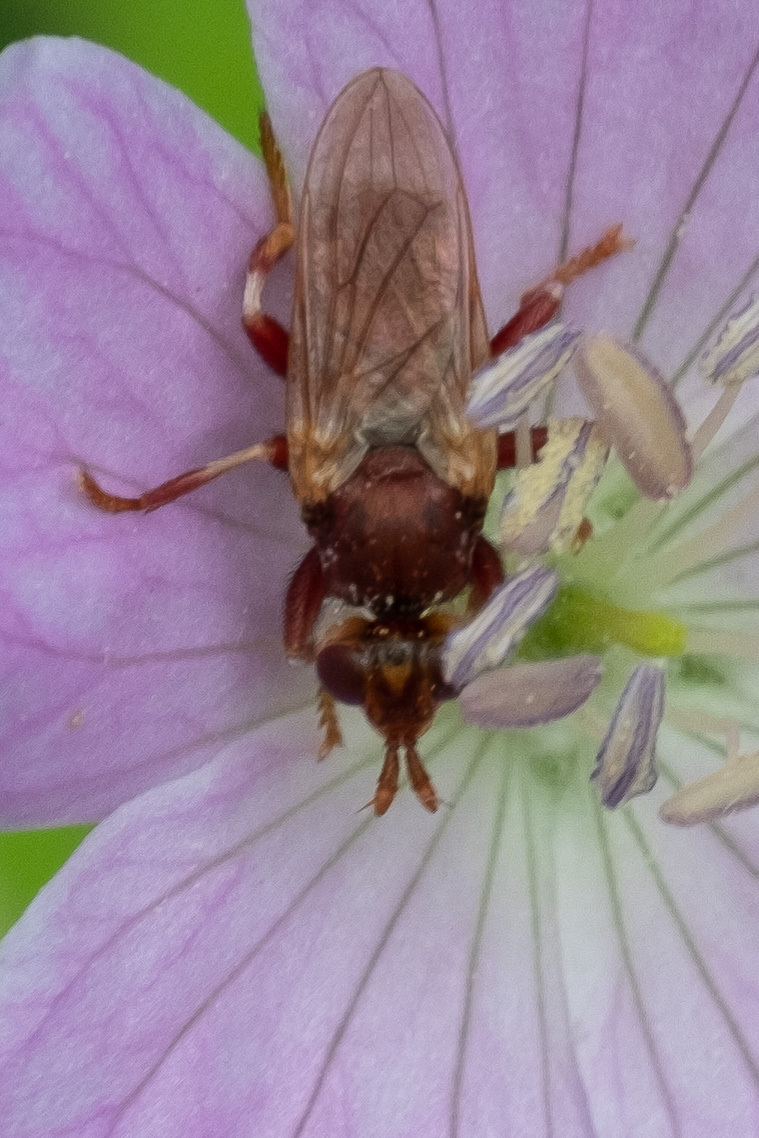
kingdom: Animalia
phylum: Arthropoda
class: Insecta
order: Diptera
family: Conopidae
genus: Myopa
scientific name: Myopa clausa
